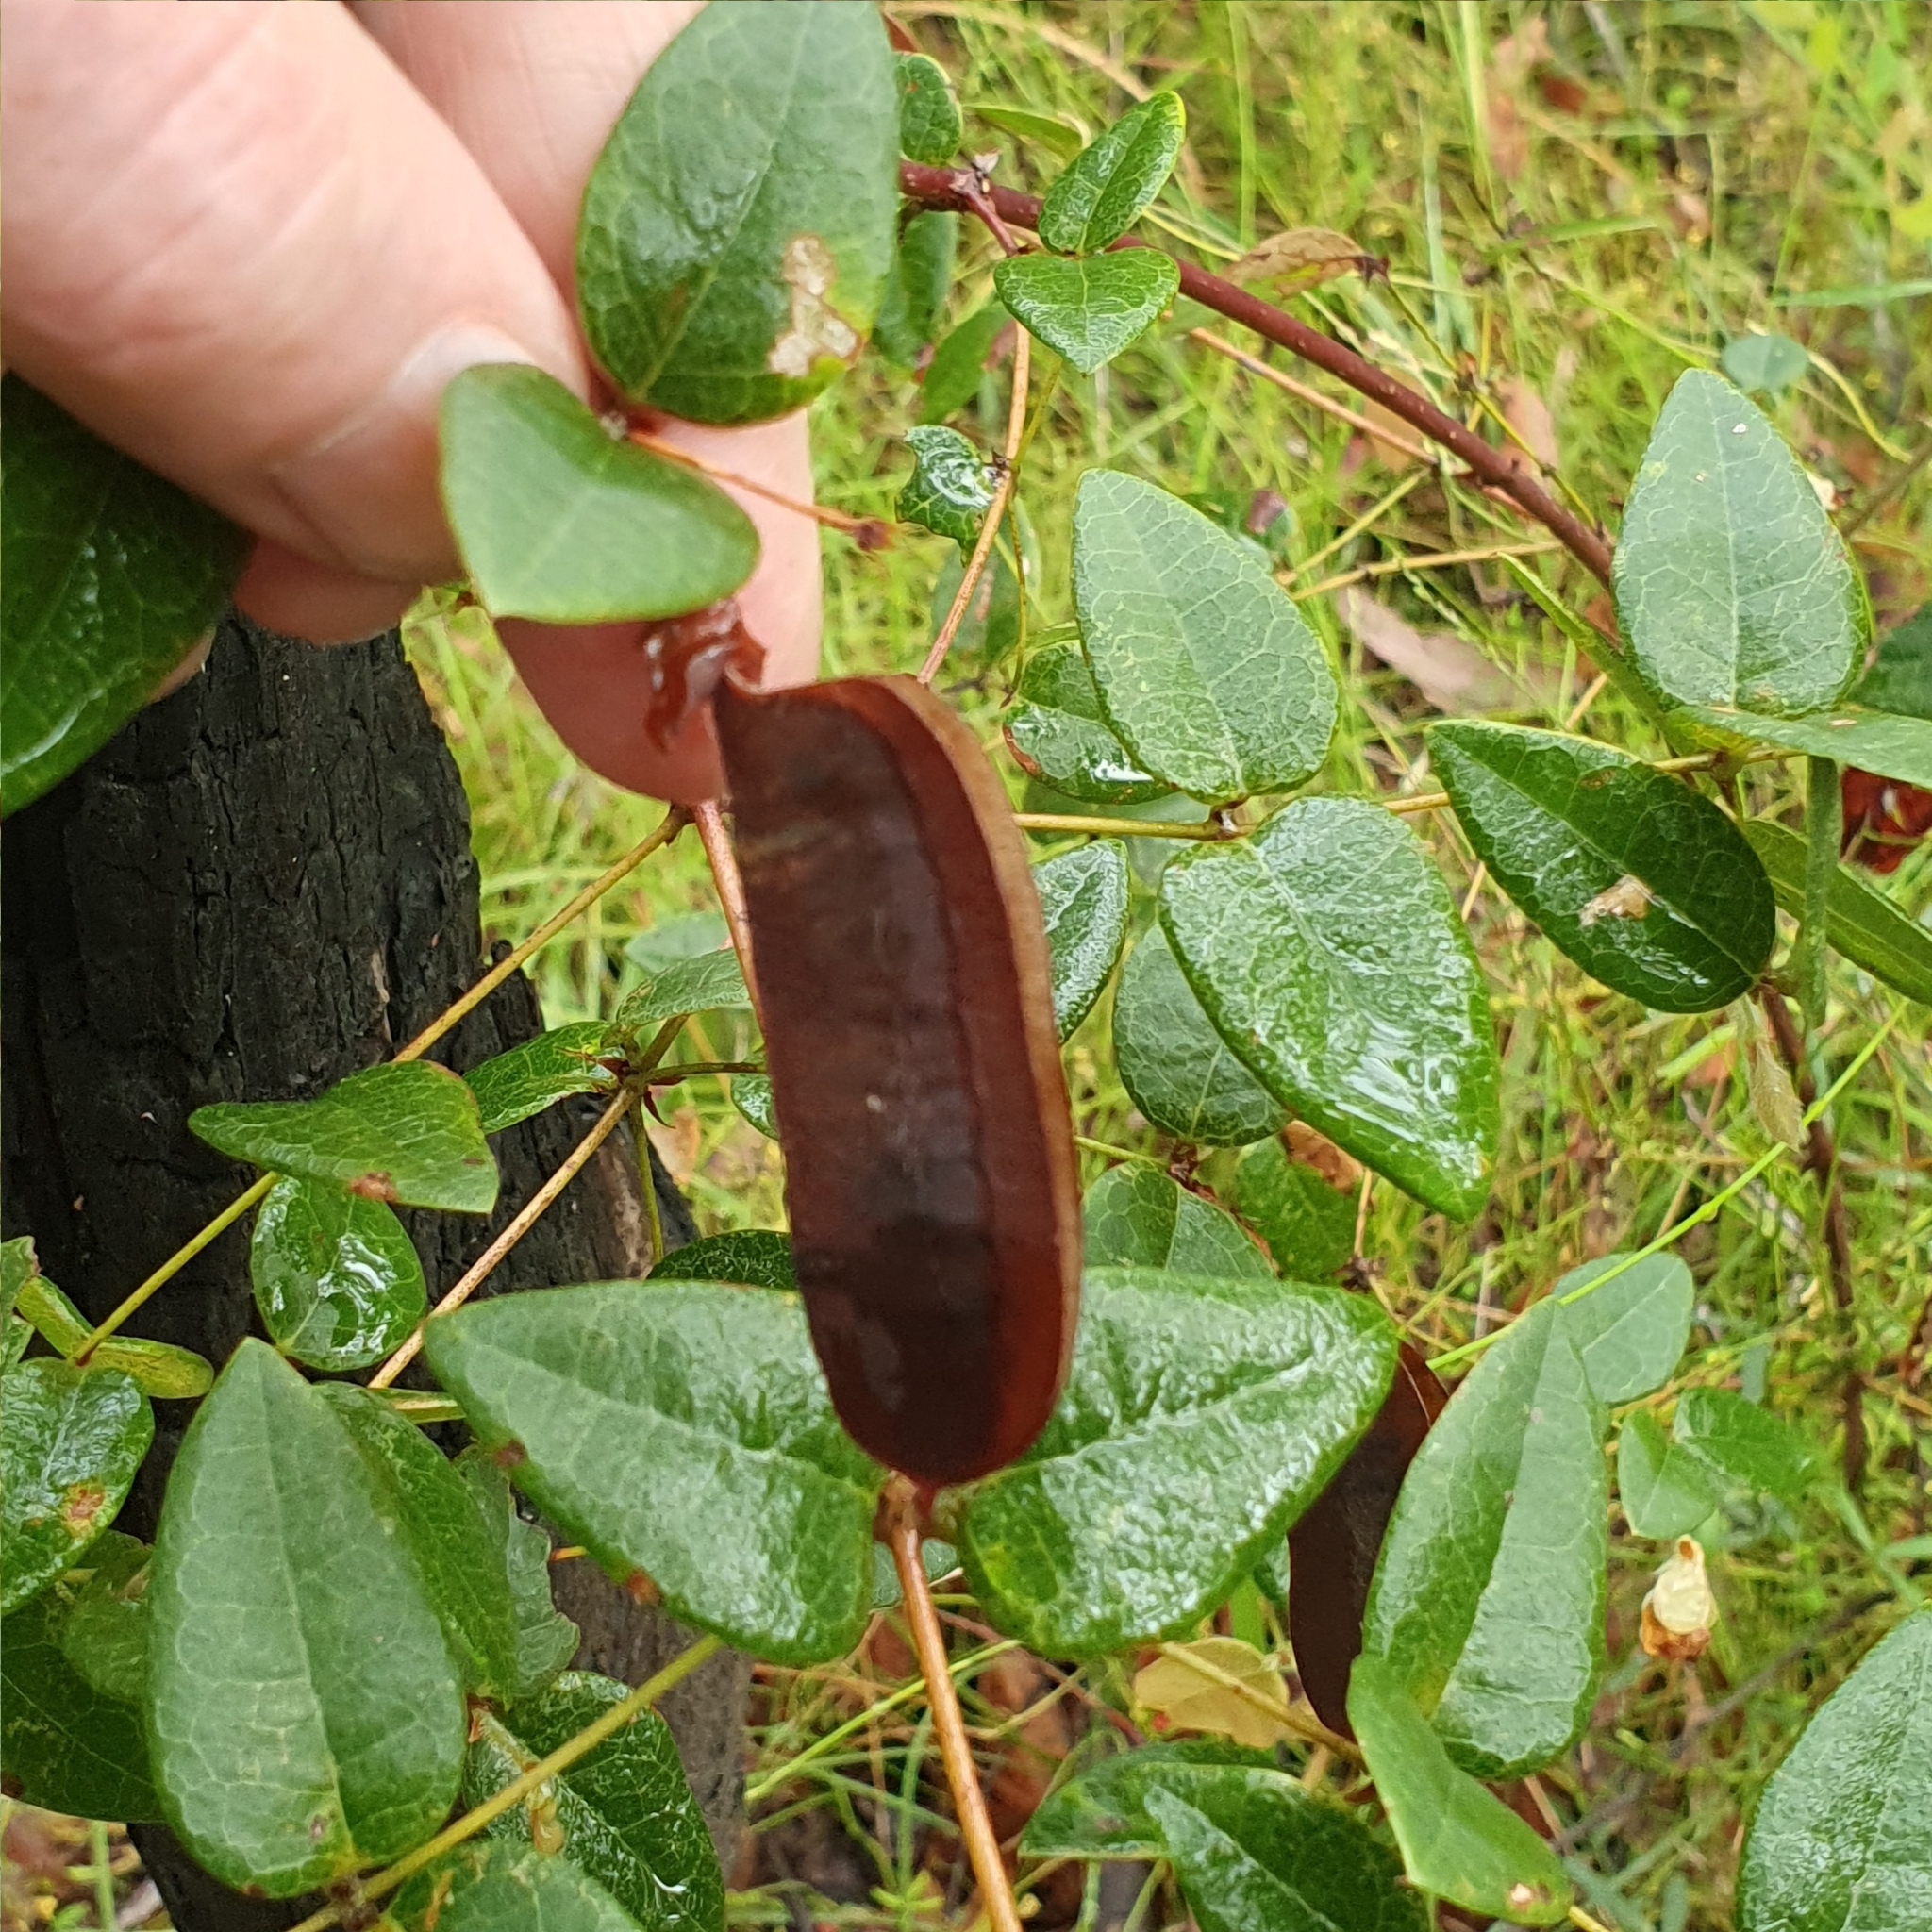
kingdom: Plantae
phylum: Tracheophyta
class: Magnoliopsida
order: Fabales
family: Fabaceae
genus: Platylobium
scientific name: Platylobium formosum
